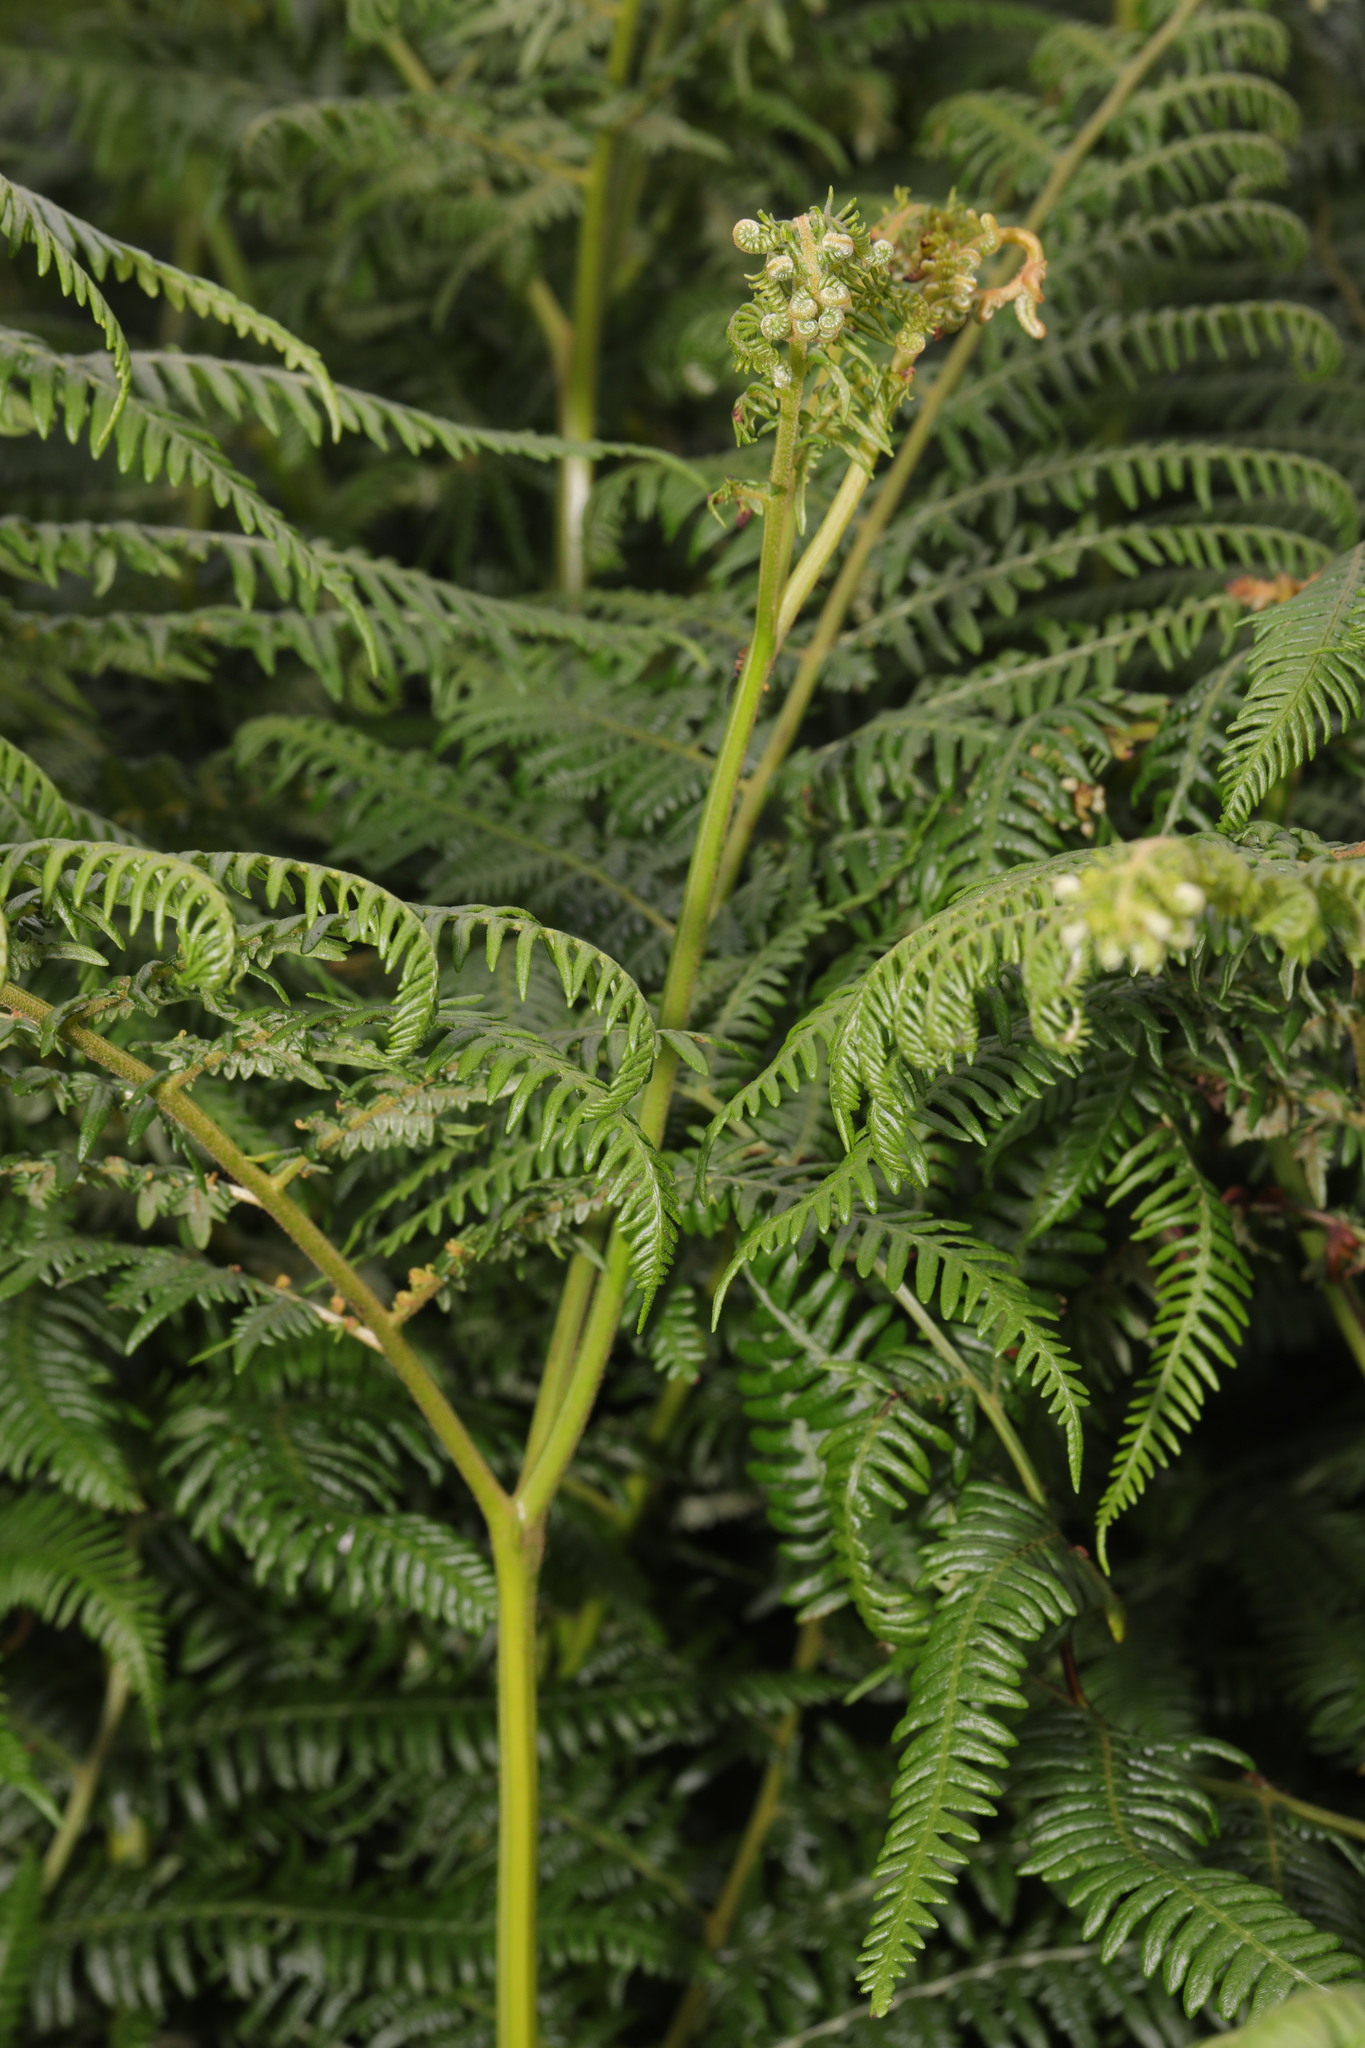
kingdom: Plantae
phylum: Tracheophyta
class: Polypodiopsida
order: Polypodiales
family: Dennstaedtiaceae
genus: Pteridium
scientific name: Pteridium aquilinum
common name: Bracken
